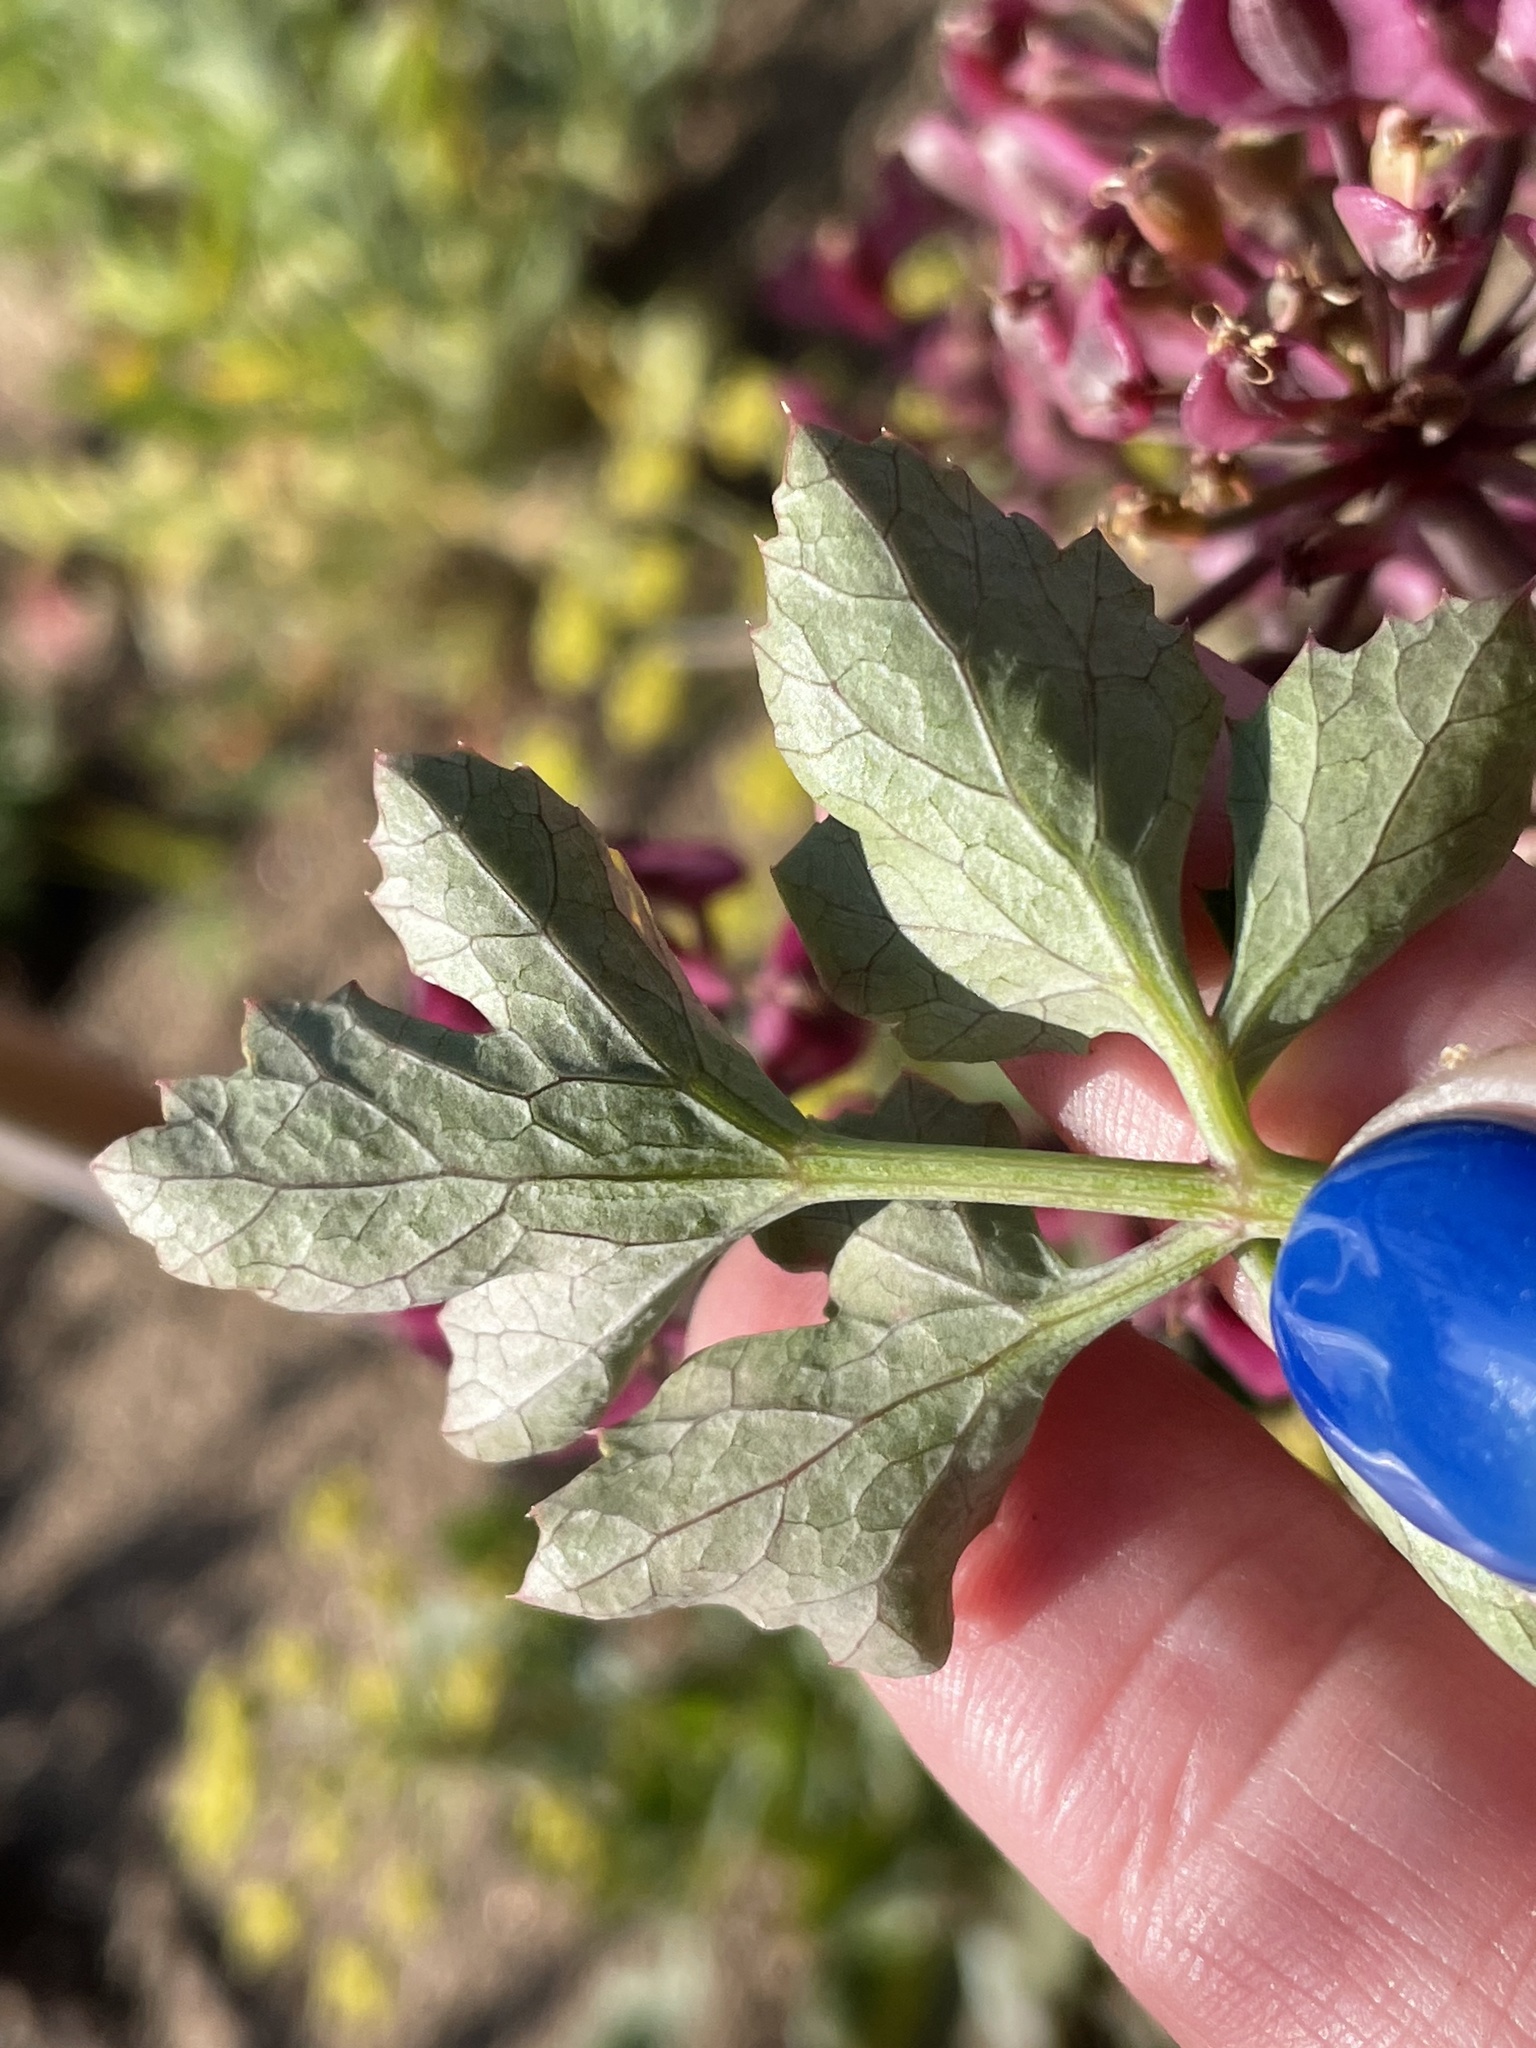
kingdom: Plantae
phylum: Tracheophyta
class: Magnoliopsida
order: Apiales
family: Apiaceae
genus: Lomatium
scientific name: Lomatium lucidum
